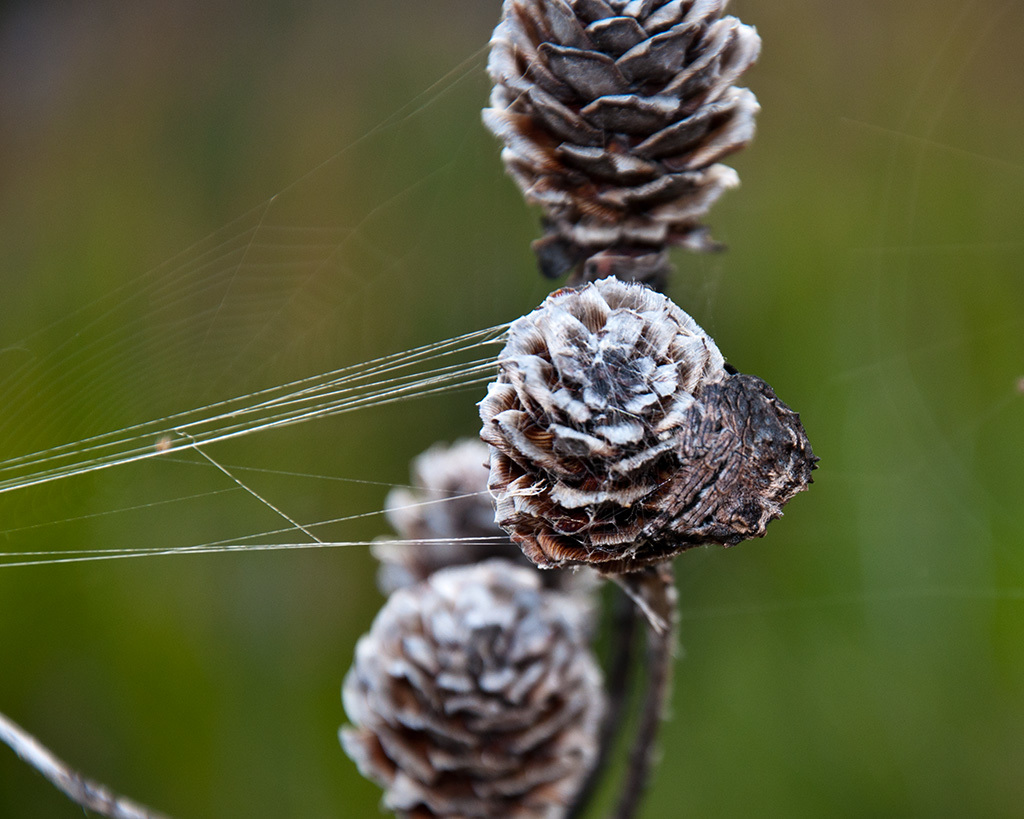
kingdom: Animalia
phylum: Arthropoda
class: Arachnida
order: Araneae
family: Araneidae
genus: Caerostris
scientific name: Caerostris corticosa
